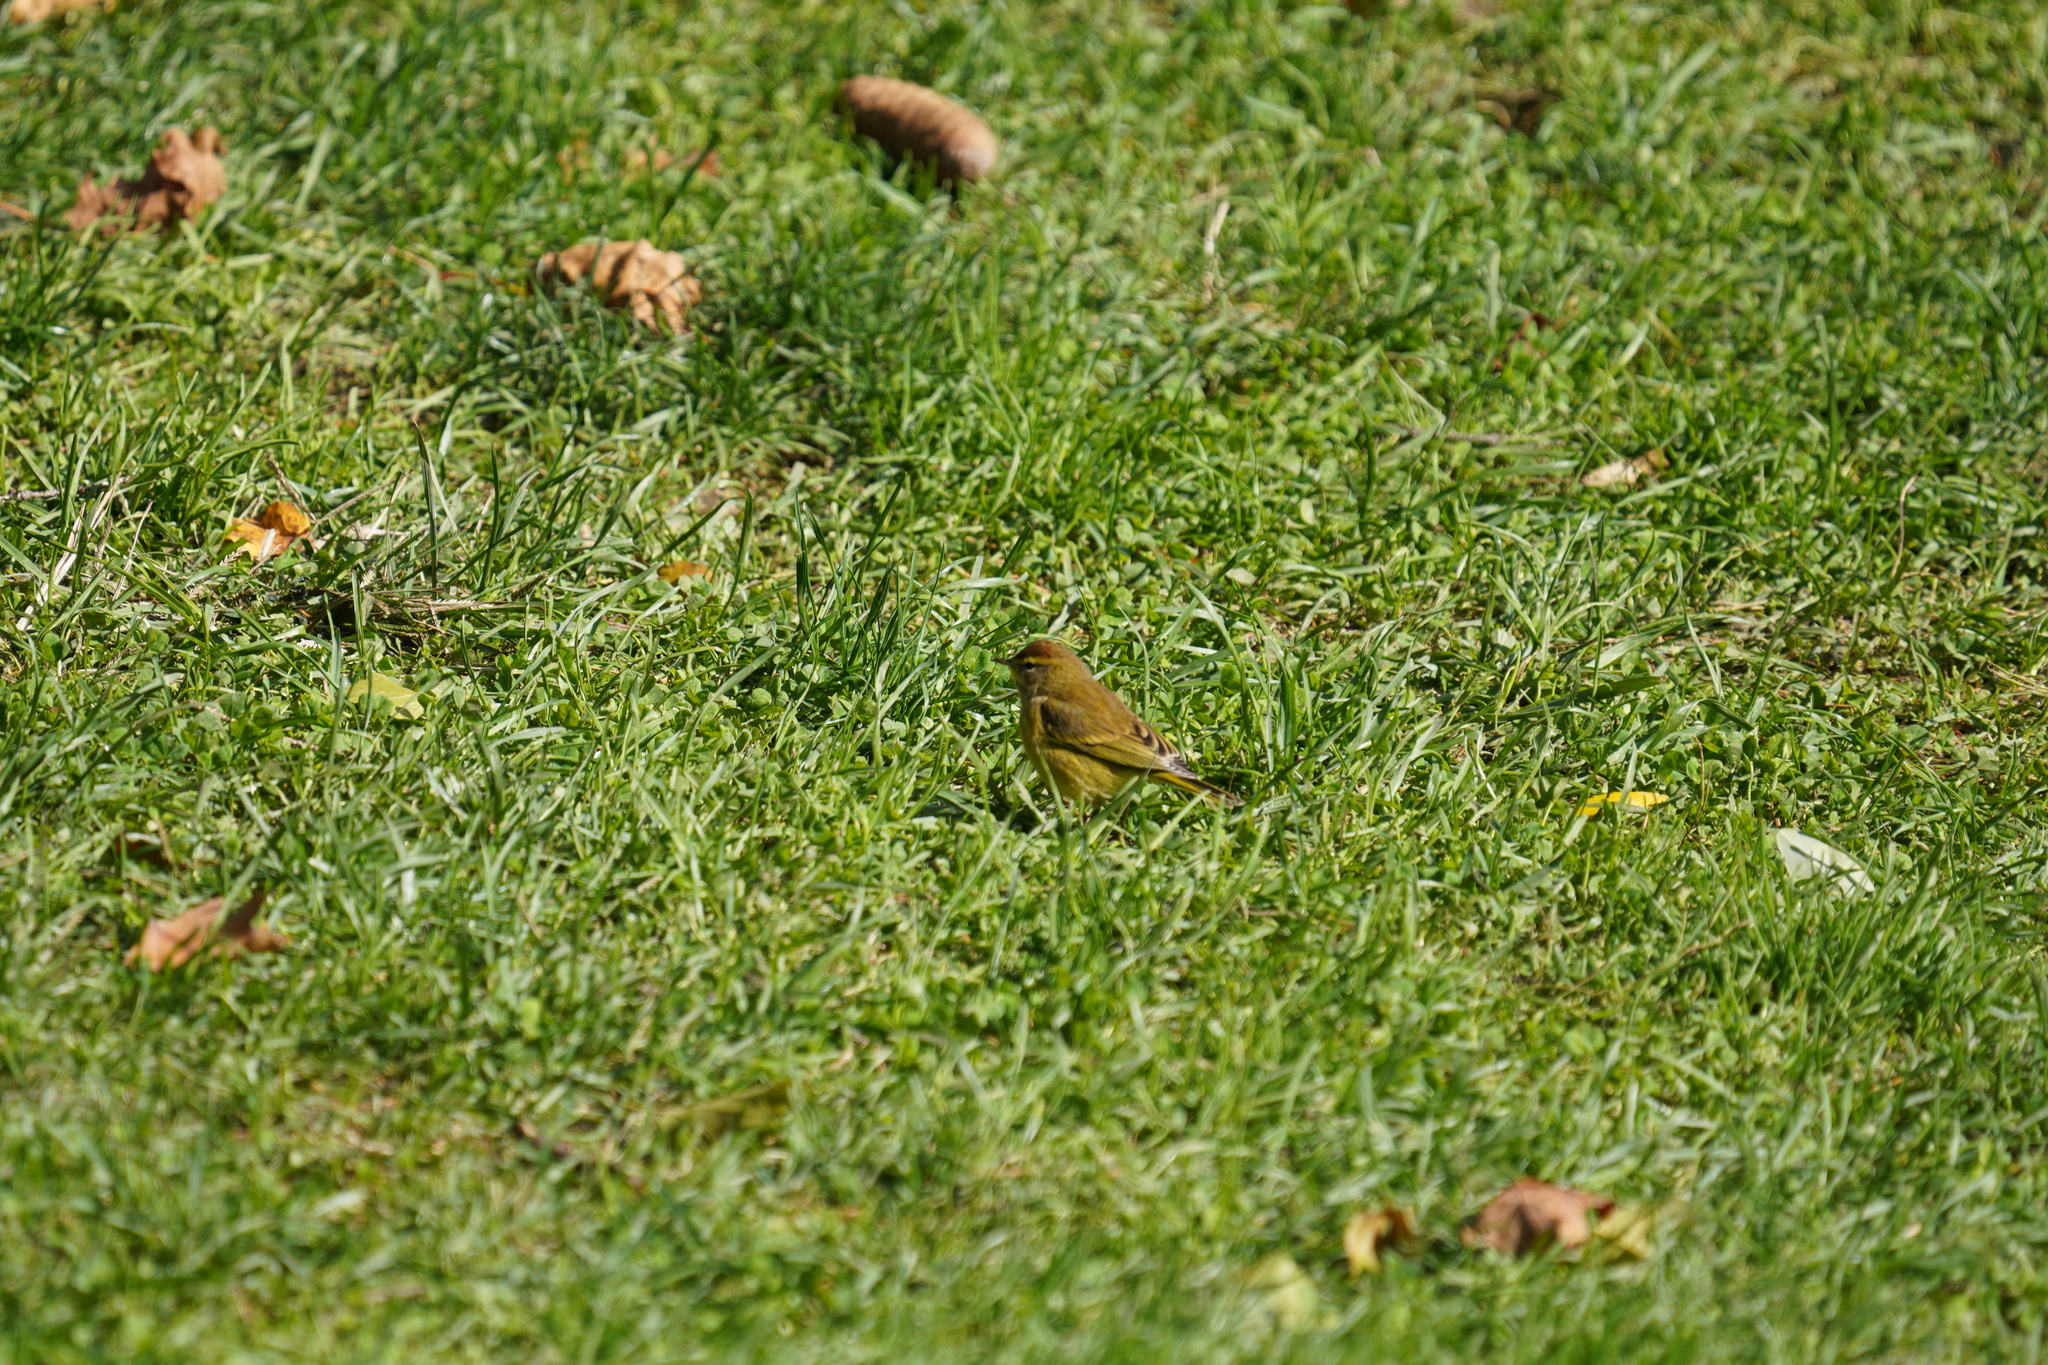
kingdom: Animalia
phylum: Chordata
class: Aves
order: Passeriformes
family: Parulidae
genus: Setophaga
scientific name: Setophaga palmarum
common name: Palm warbler
